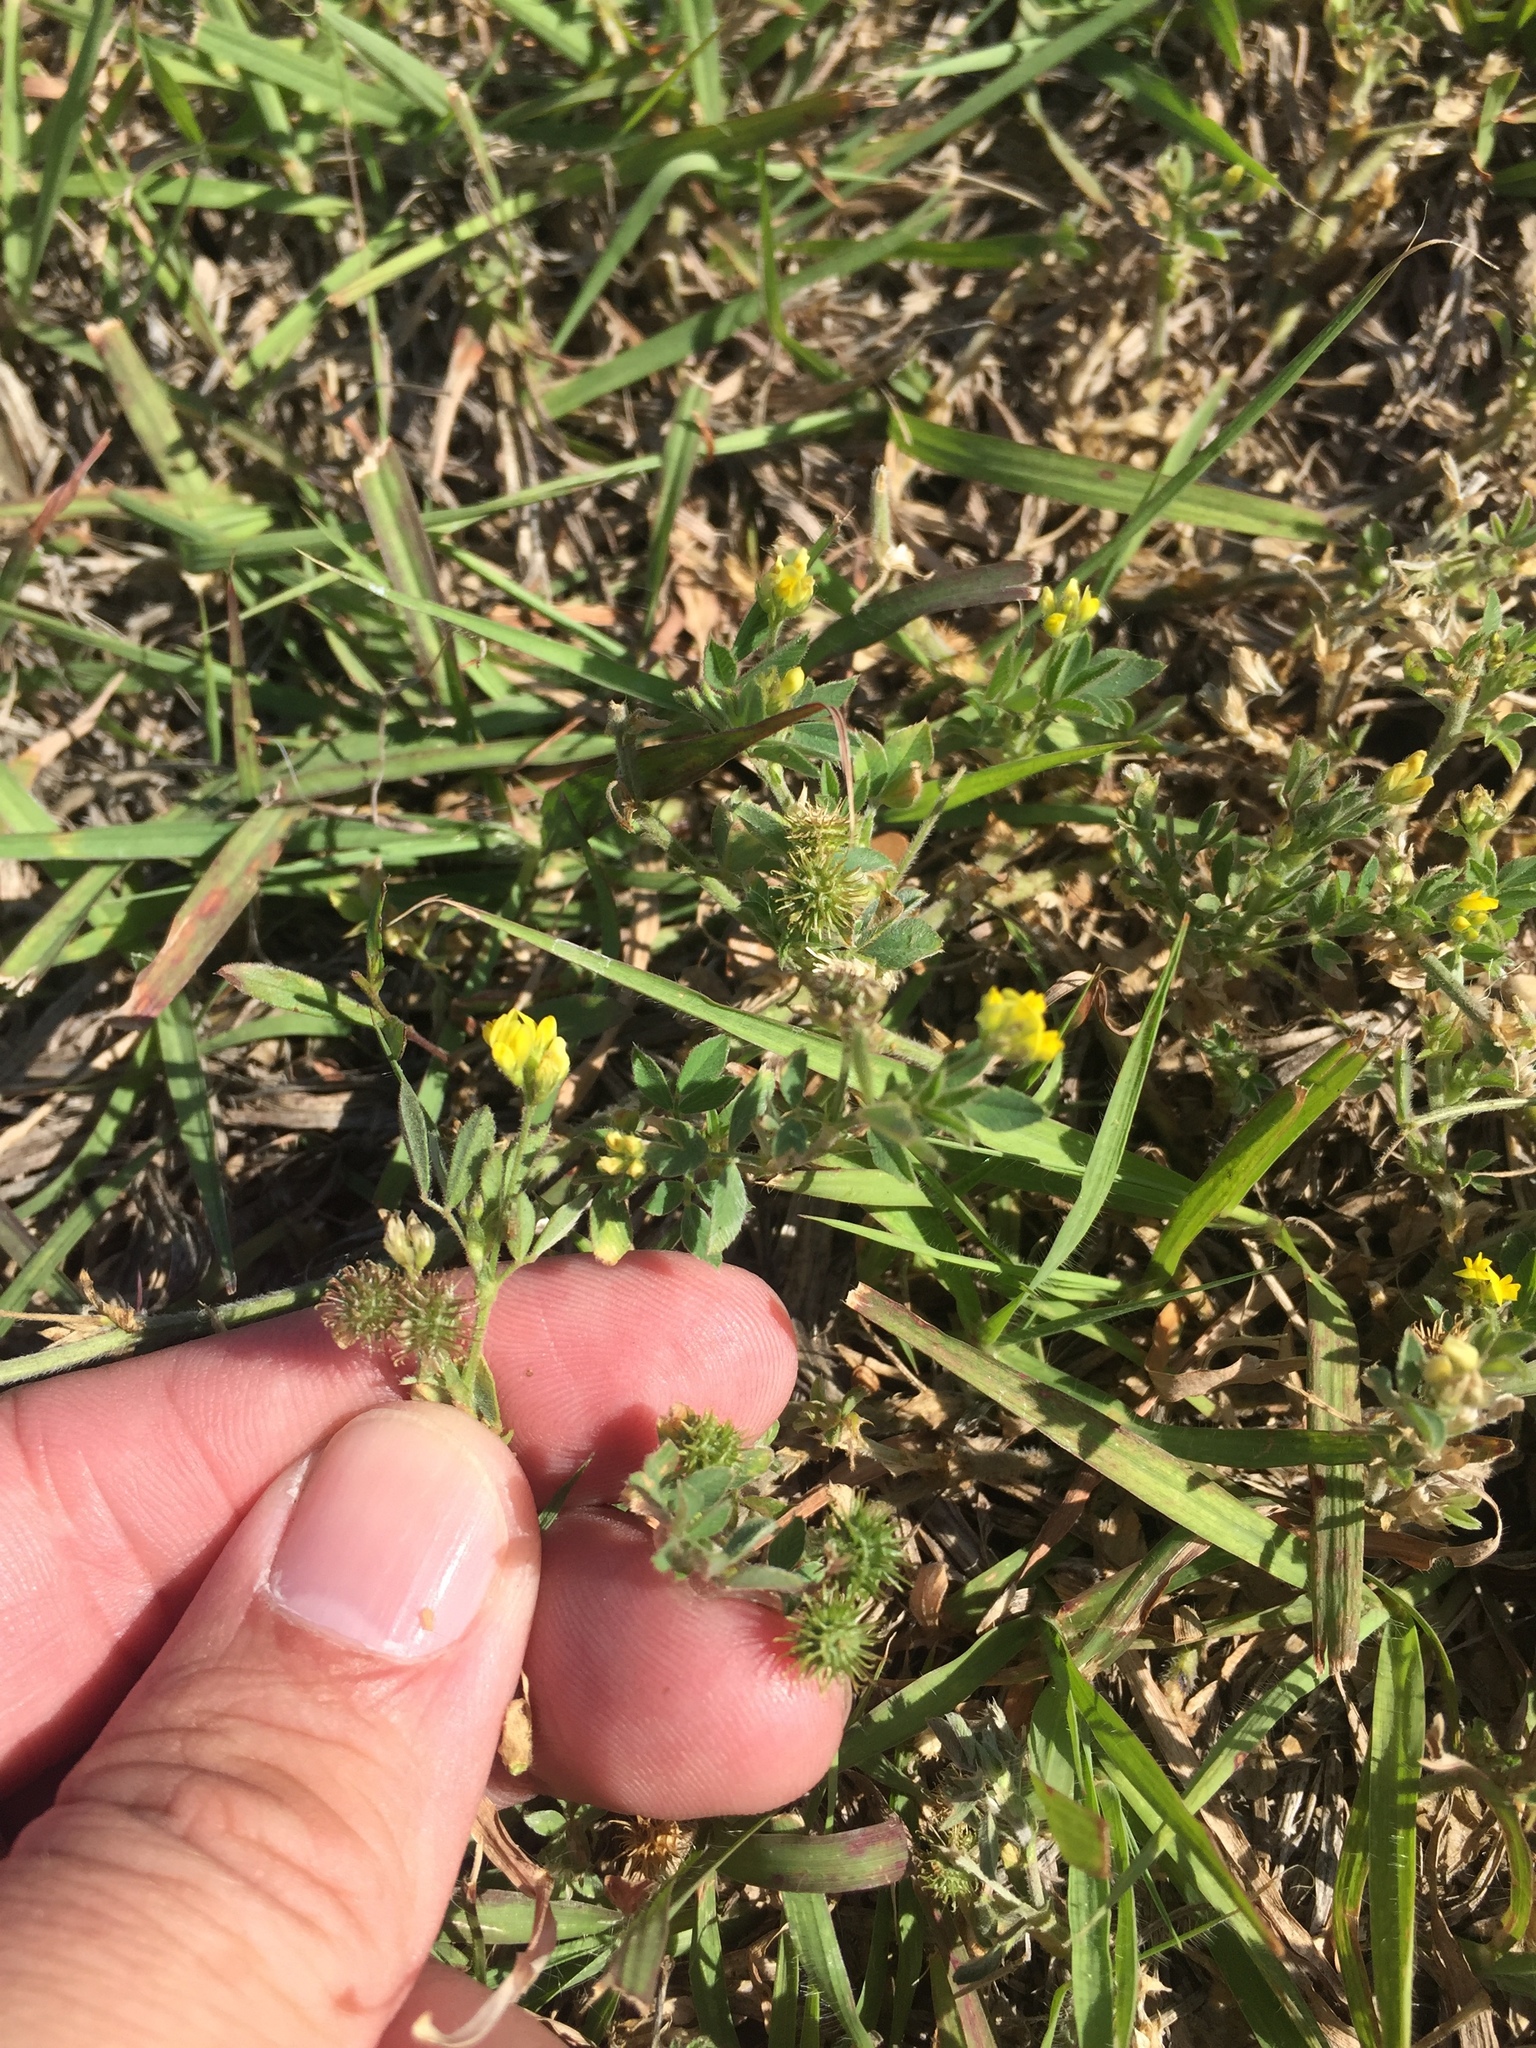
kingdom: Plantae
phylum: Tracheophyta
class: Magnoliopsida
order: Fabales
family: Fabaceae
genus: Medicago
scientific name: Medicago minima
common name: Little bur-clover
